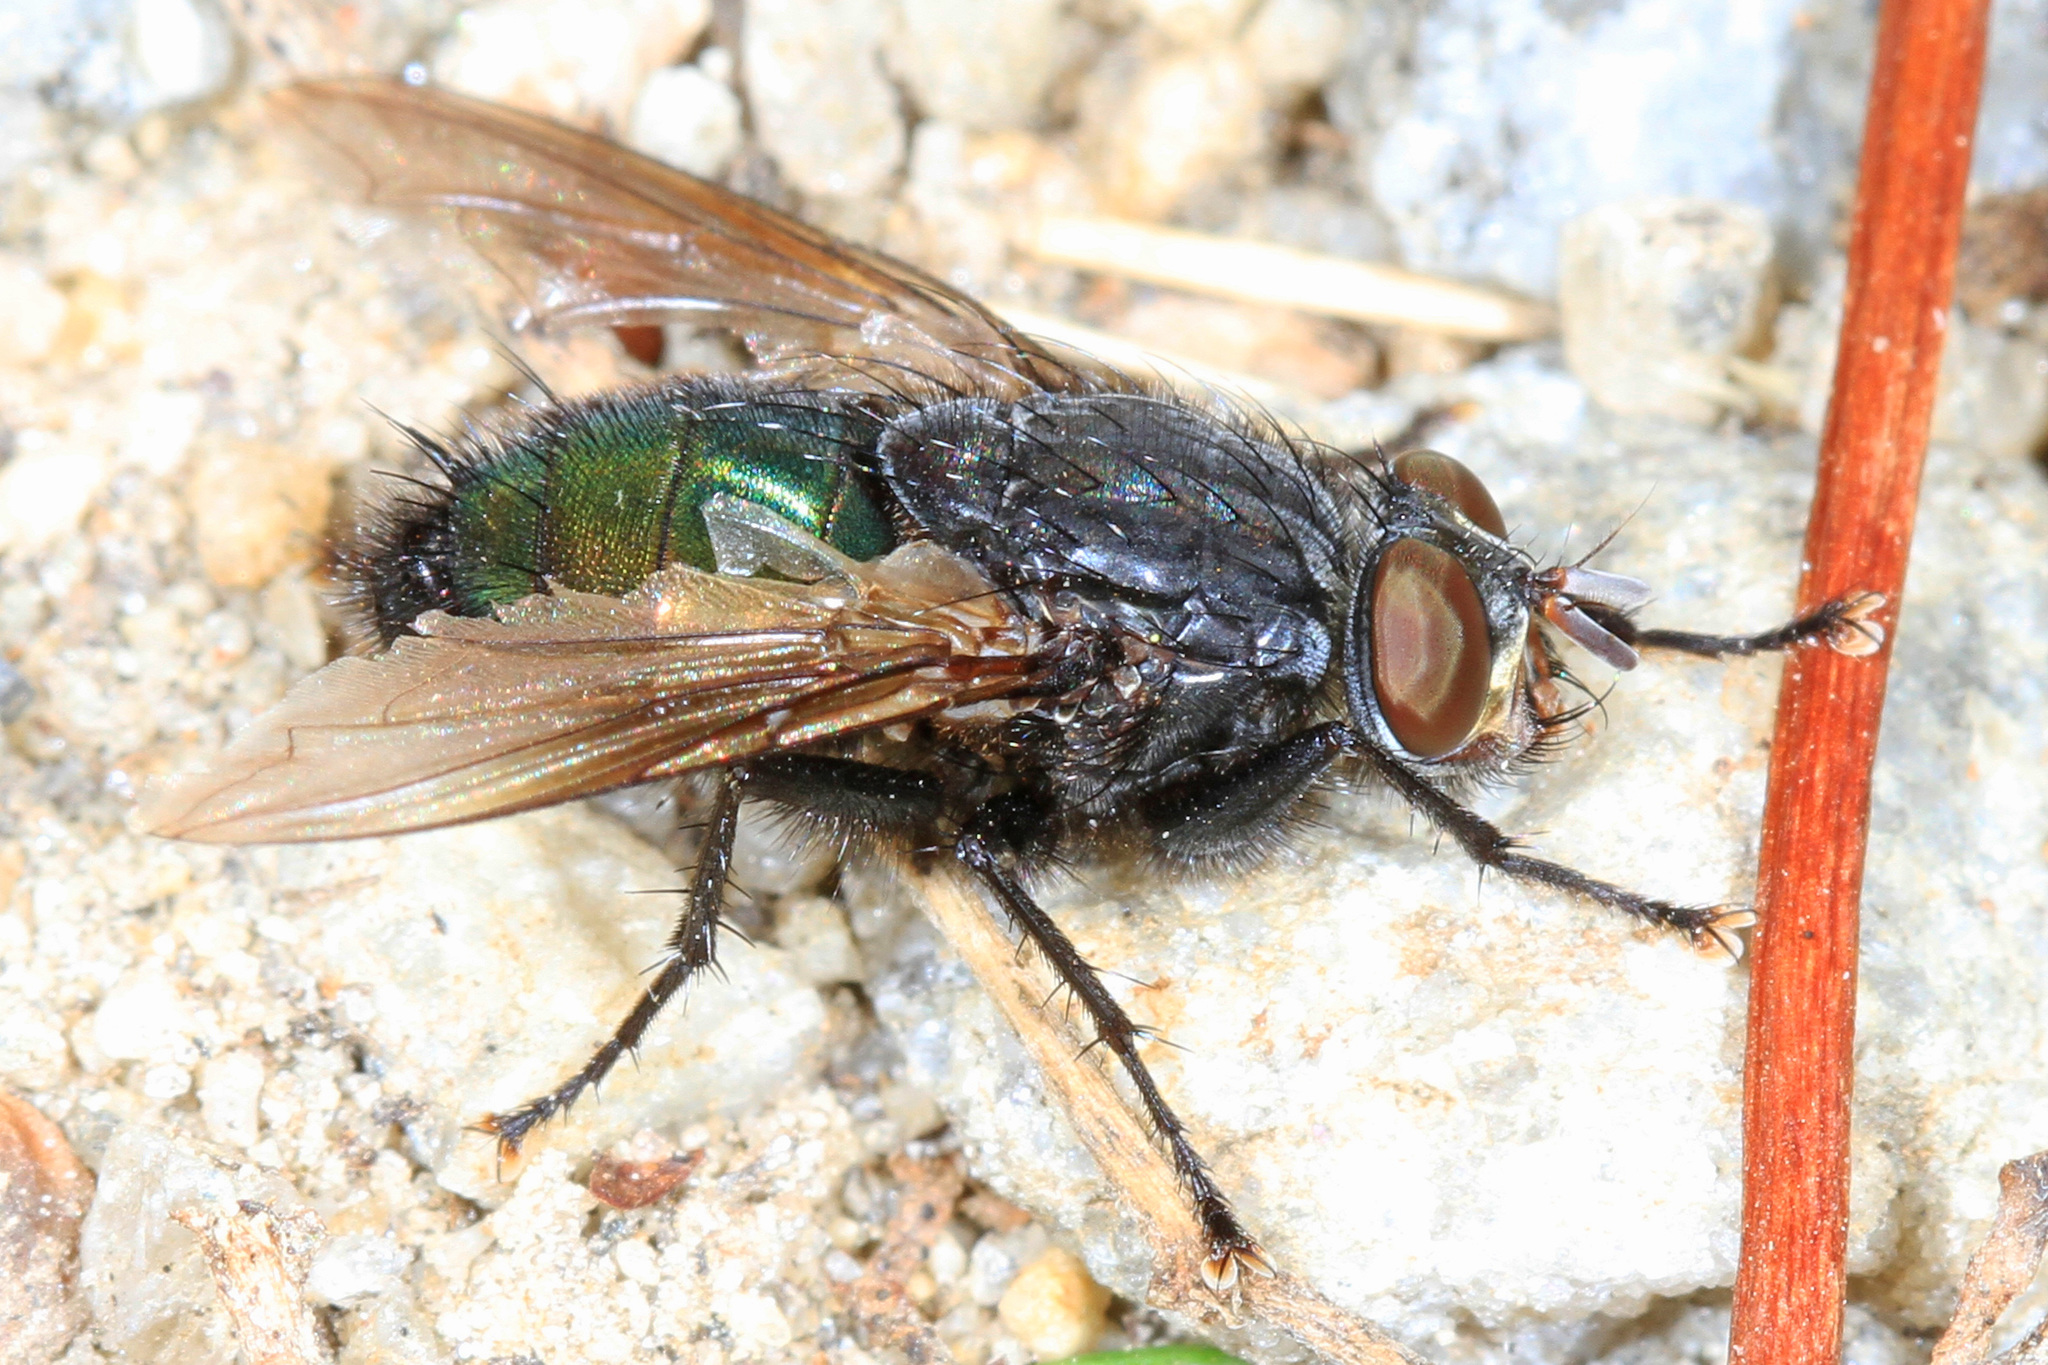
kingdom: Animalia
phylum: Arthropoda
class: Insecta
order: Diptera
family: Calliphoridae
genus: Cynomya
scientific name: Cynomya cadaverina
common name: Shiny blue bottle fly
